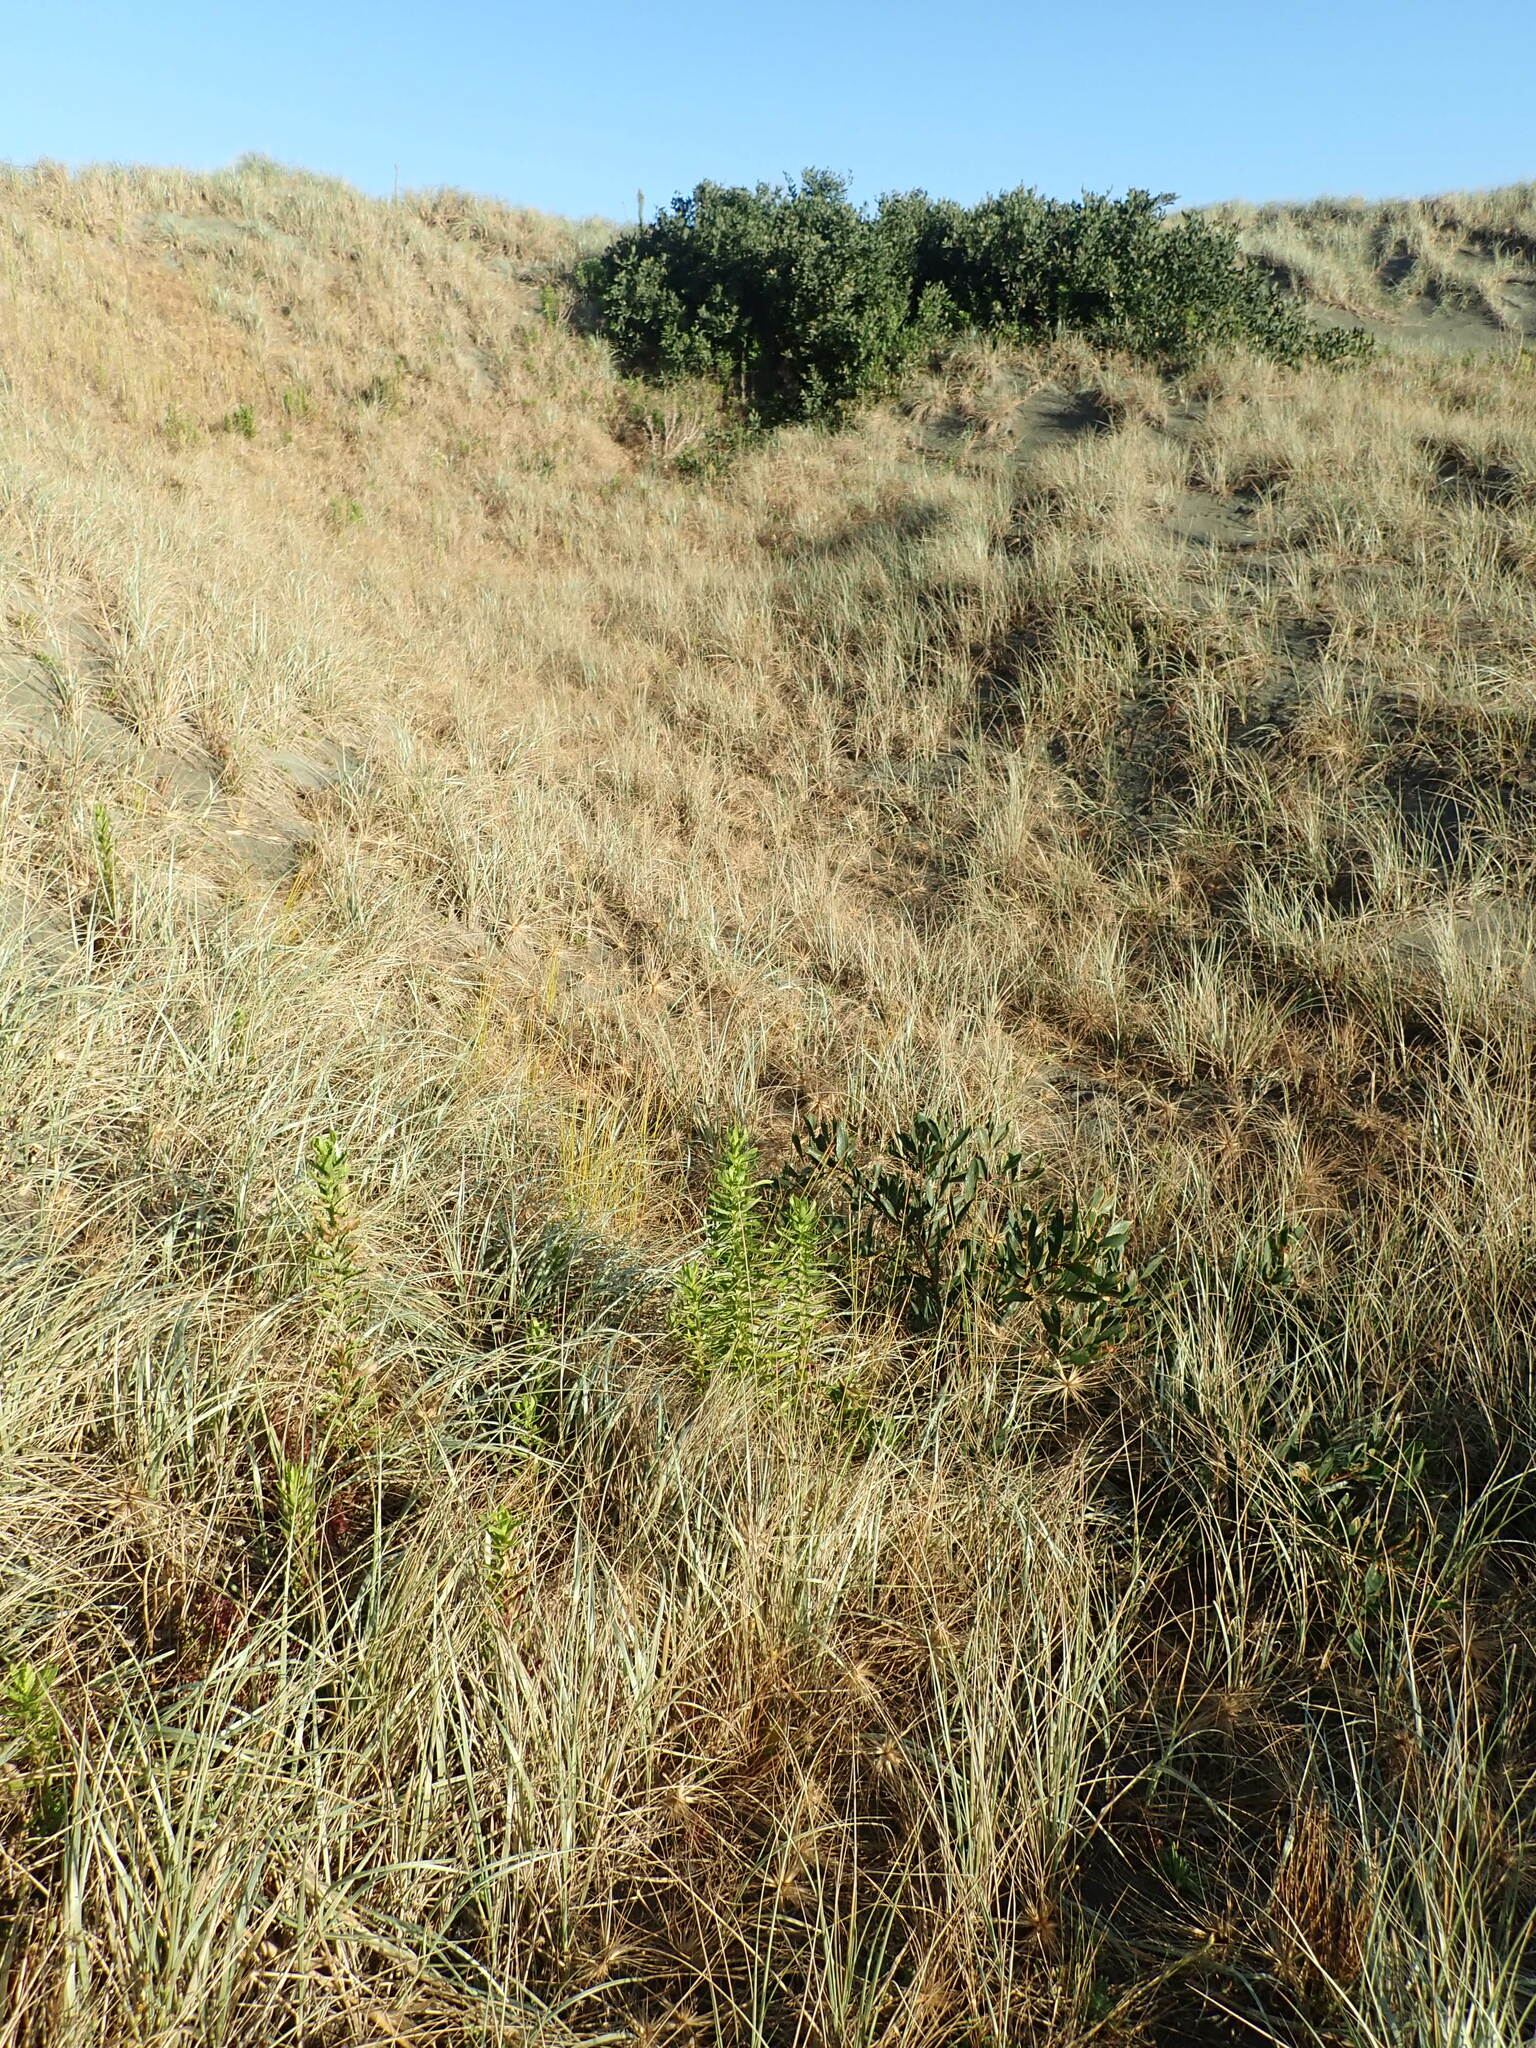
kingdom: Plantae
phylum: Tracheophyta
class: Magnoliopsida
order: Fabales
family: Fabaceae
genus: Acacia
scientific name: Acacia longifolia
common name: Sydney golden wattle
